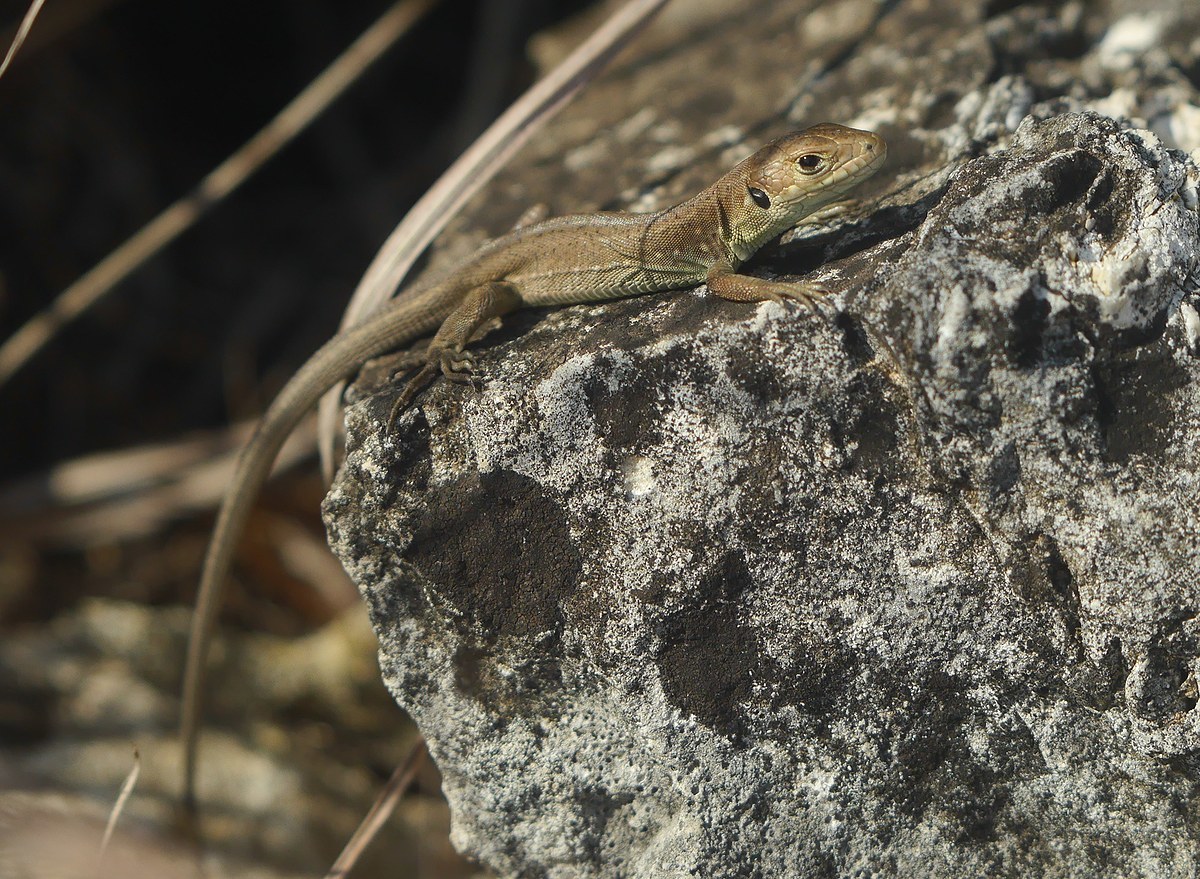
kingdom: Animalia
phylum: Chordata
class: Squamata
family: Lacertidae
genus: Lacerta
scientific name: Lacerta viridis
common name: European green lizard
